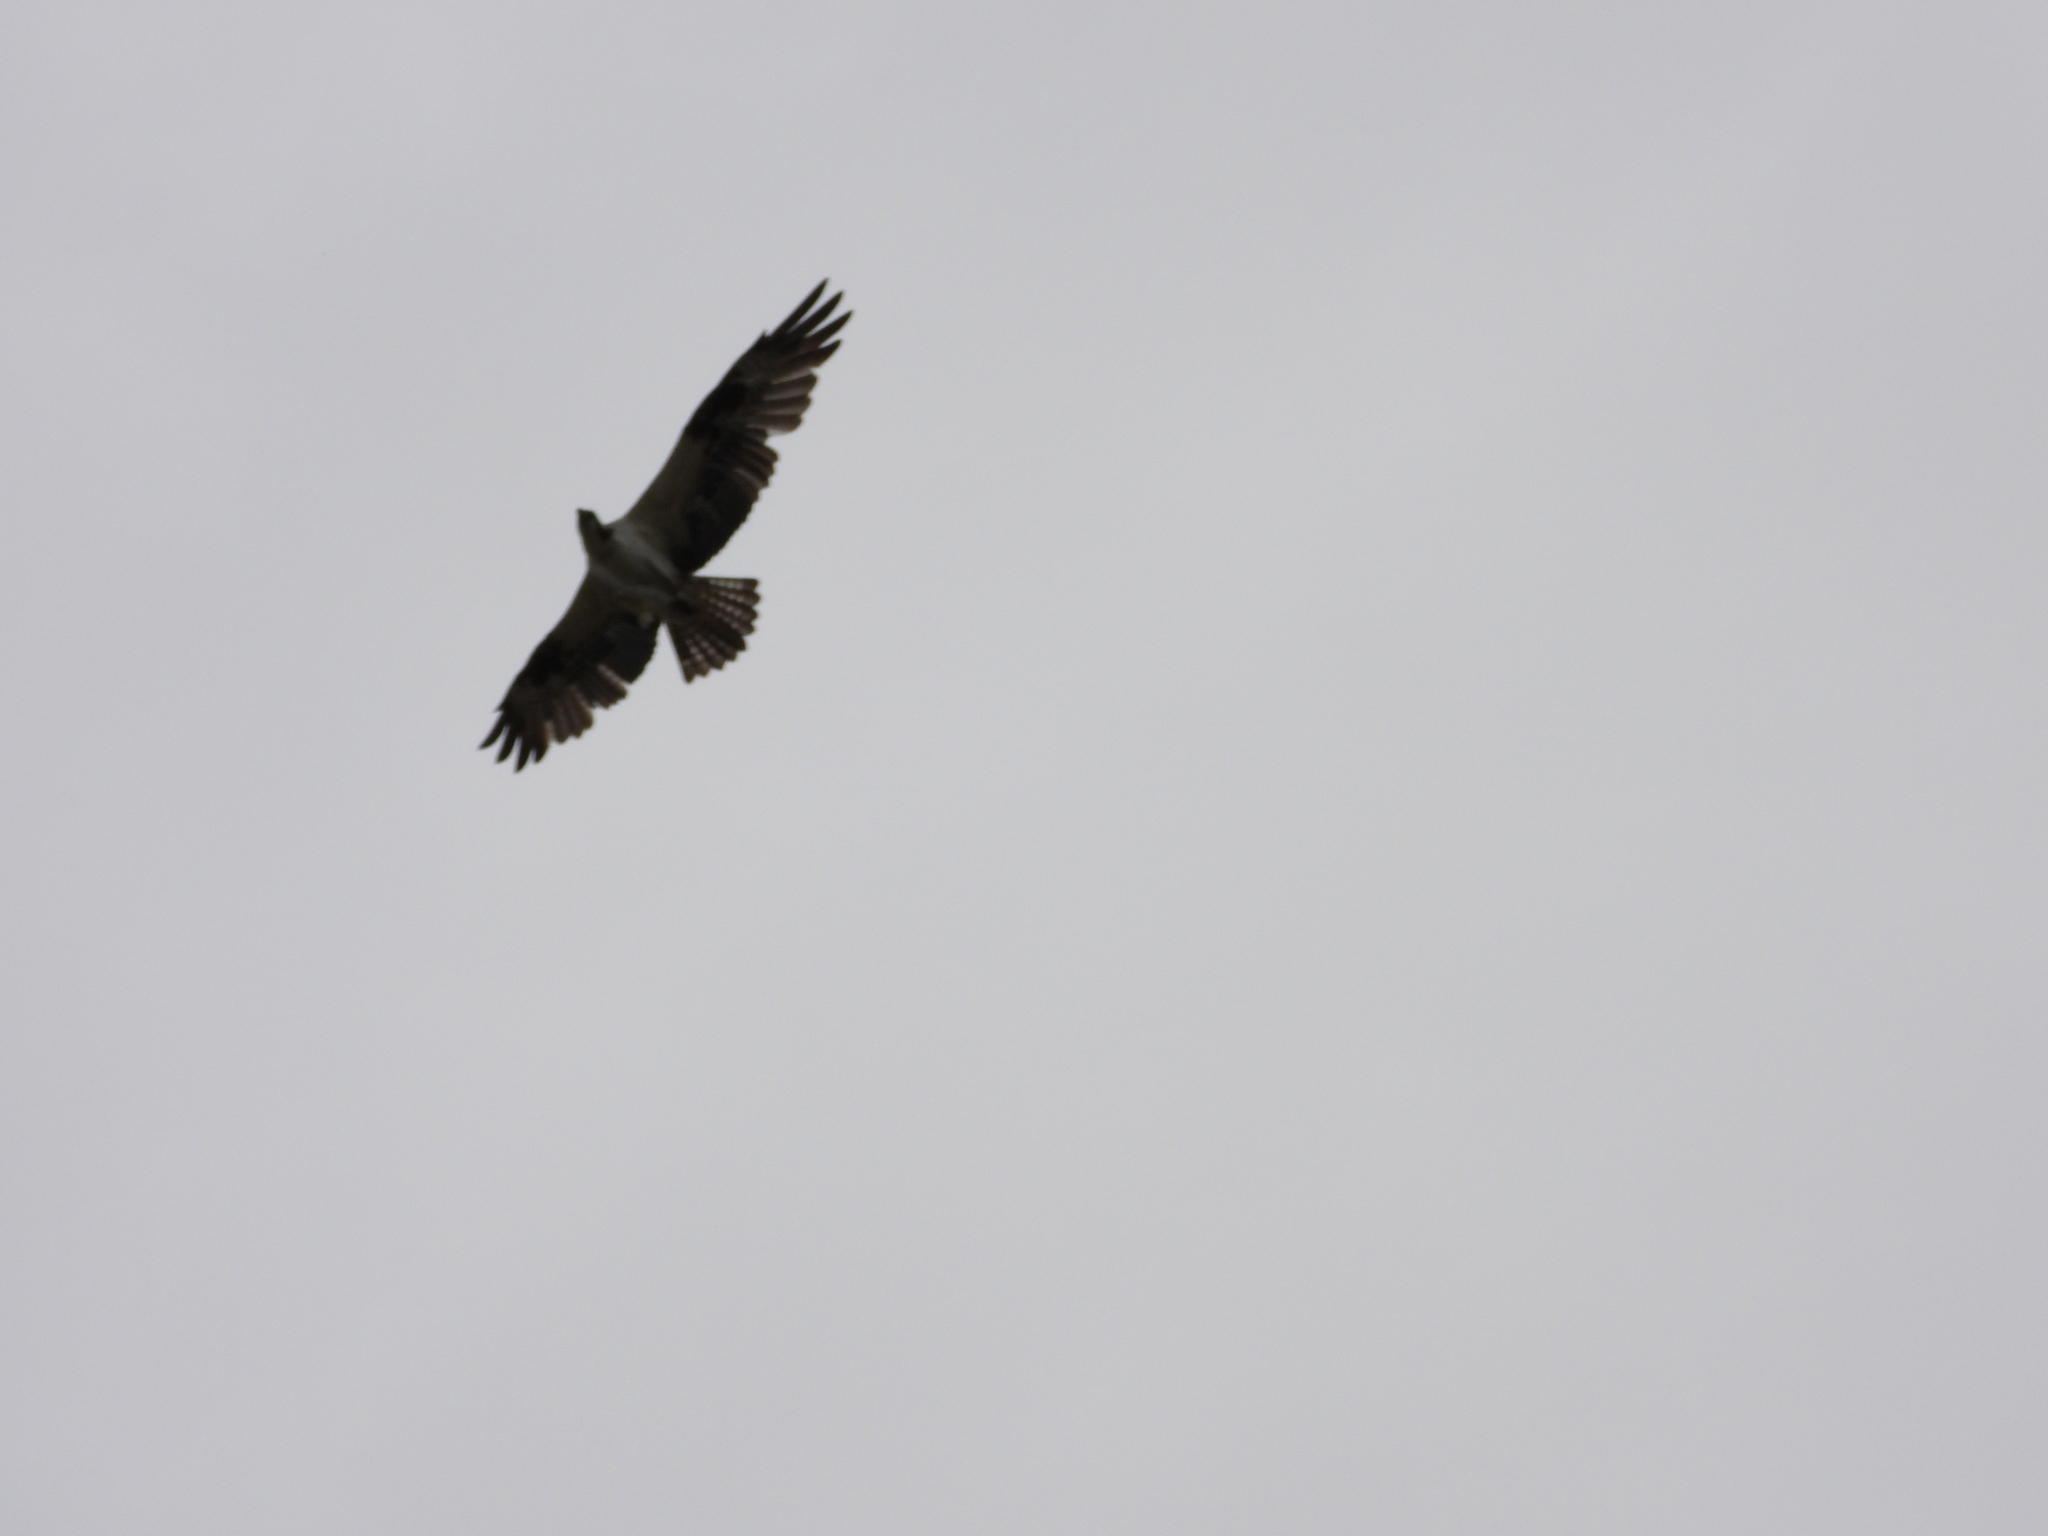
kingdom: Animalia
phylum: Chordata
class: Aves
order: Accipitriformes
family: Pandionidae
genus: Pandion
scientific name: Pandion haliaetus
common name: Osprey
